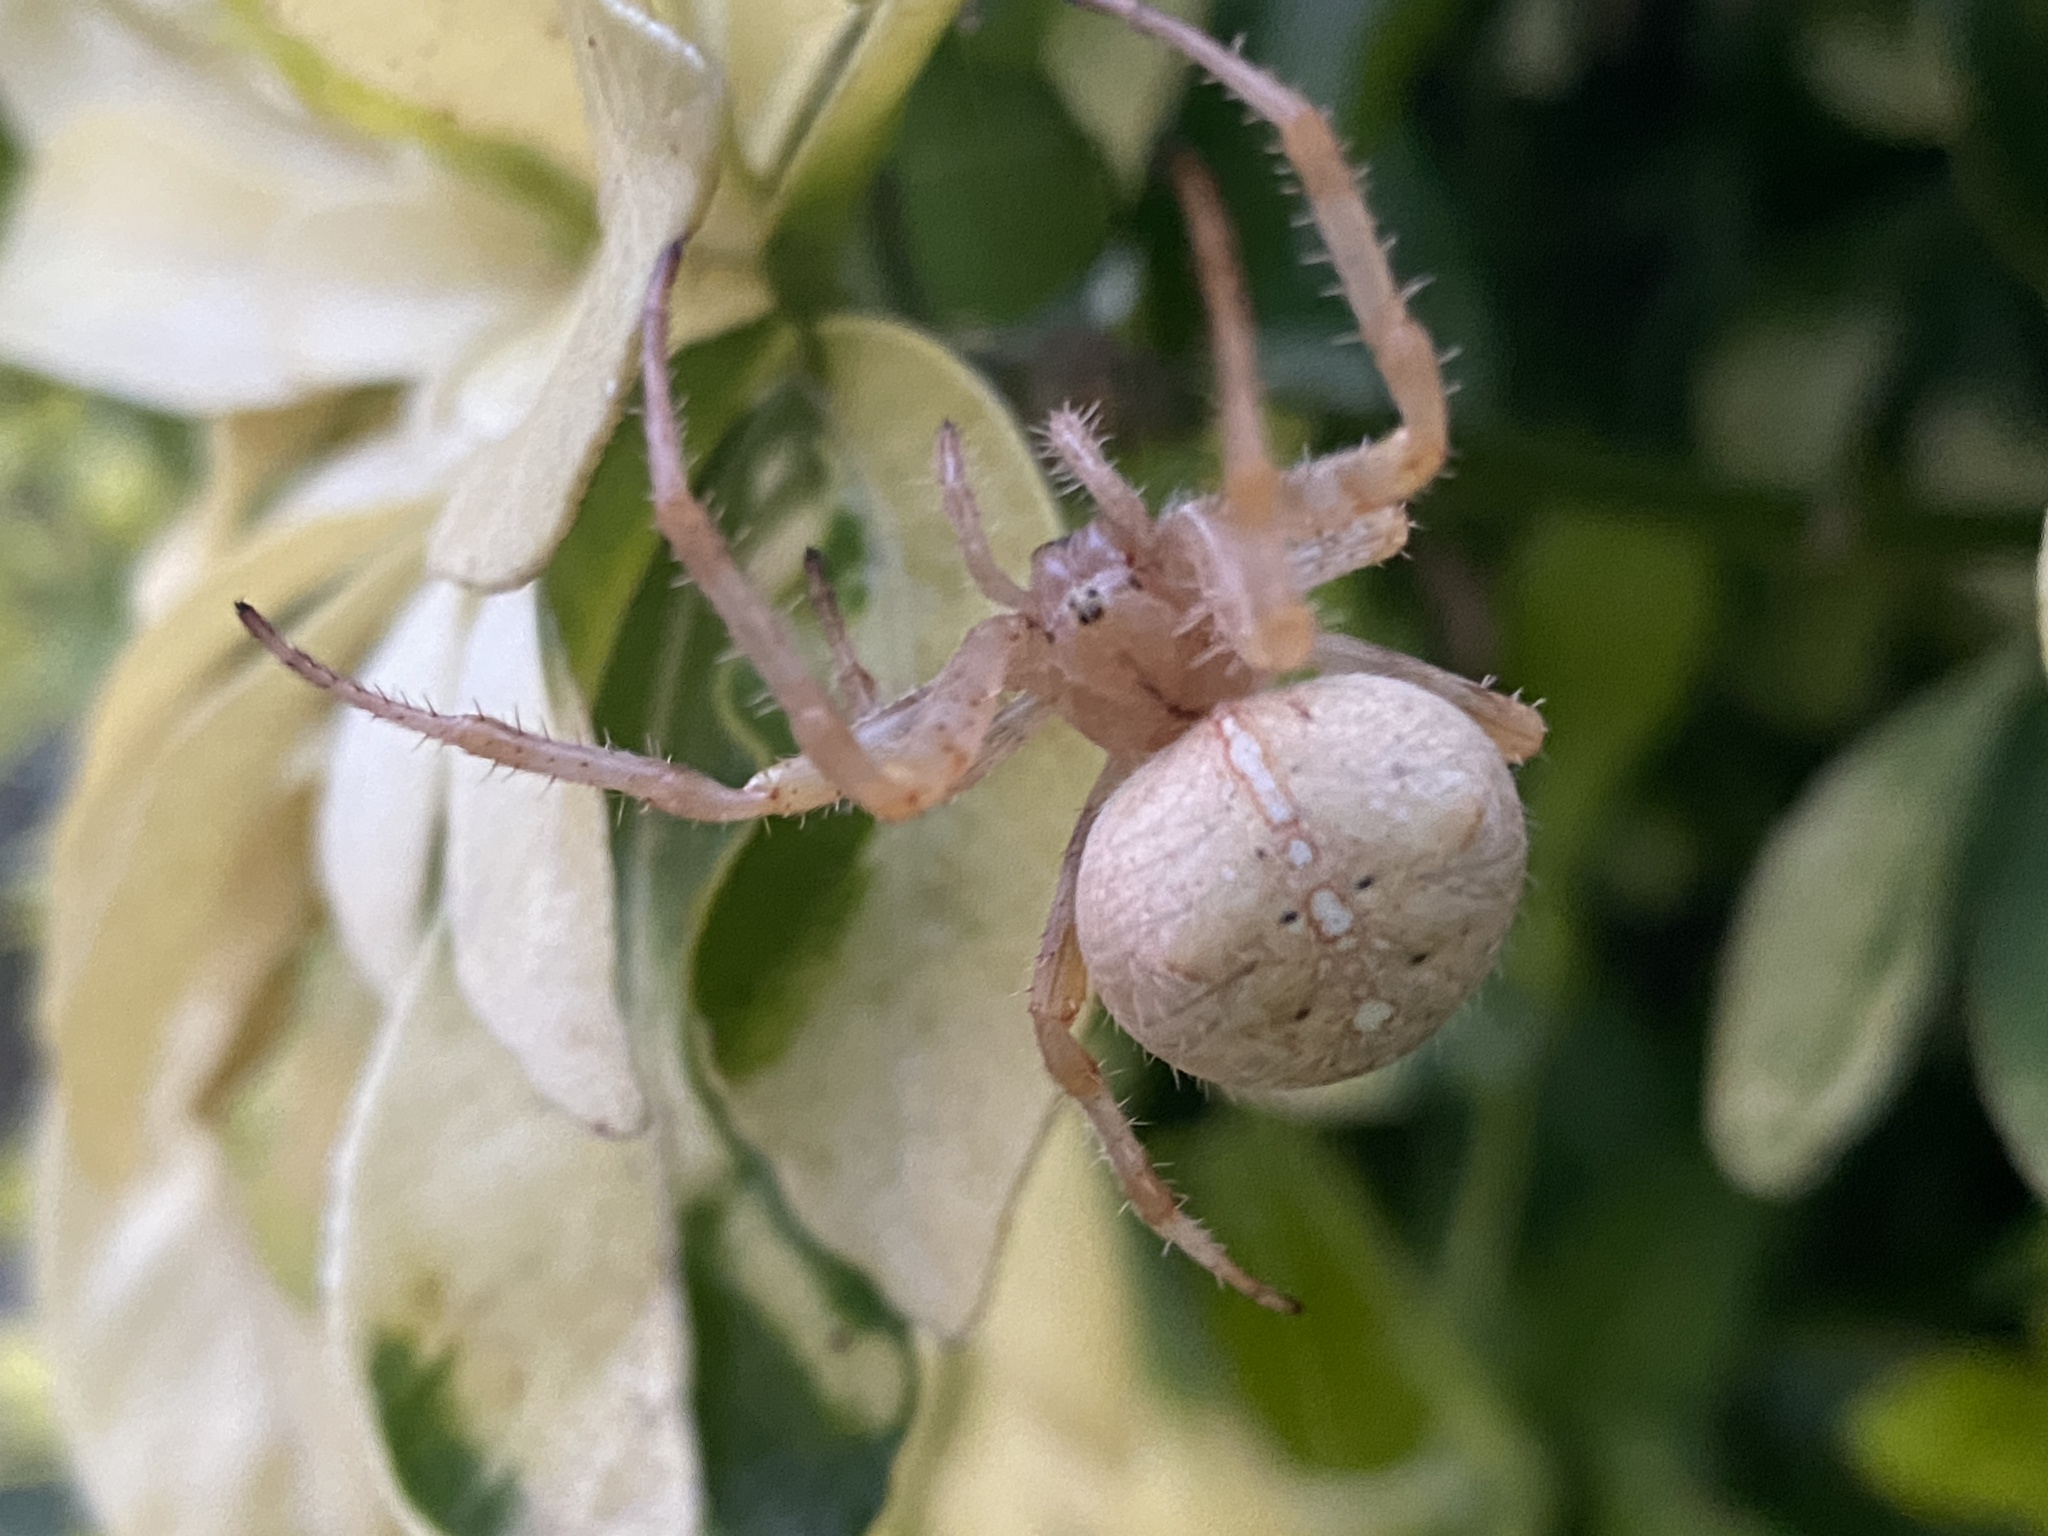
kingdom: Animalia
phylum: Arthropoda
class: Arachnida
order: Araneae
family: Araneidae
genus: Araneus
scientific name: Araneus diadematus
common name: Cross orbweaver
